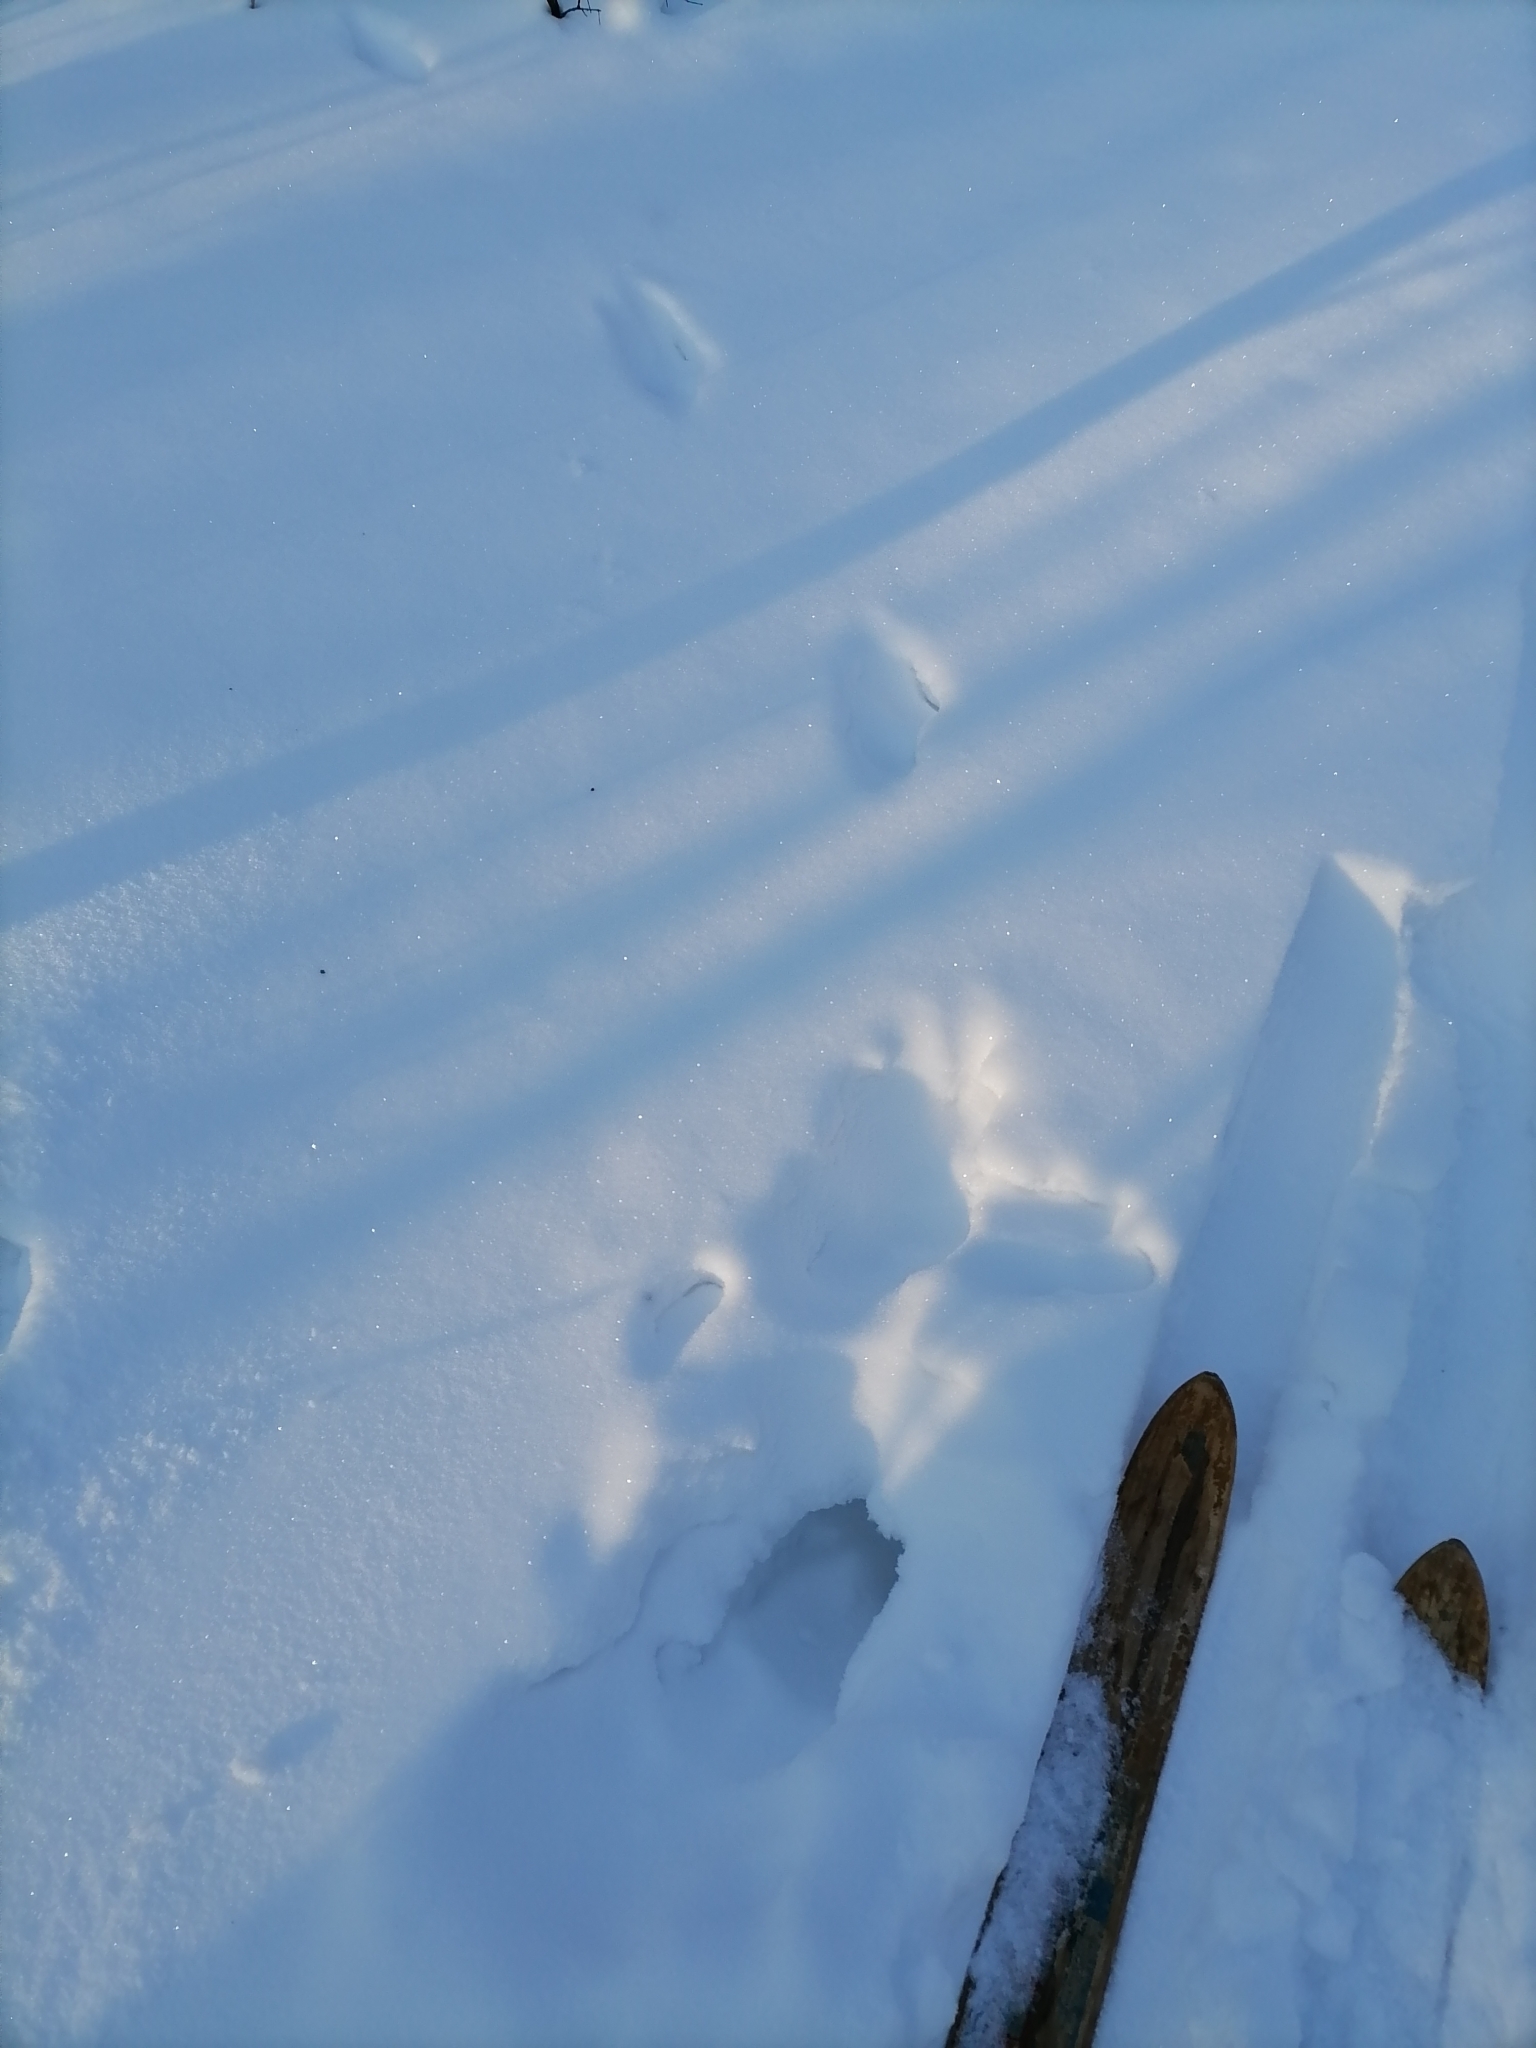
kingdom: Animalia
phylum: Chordata
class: Mammalia
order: Carnivora
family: Mustelidae
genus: Martes
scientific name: Martes martes
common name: European pine marten
